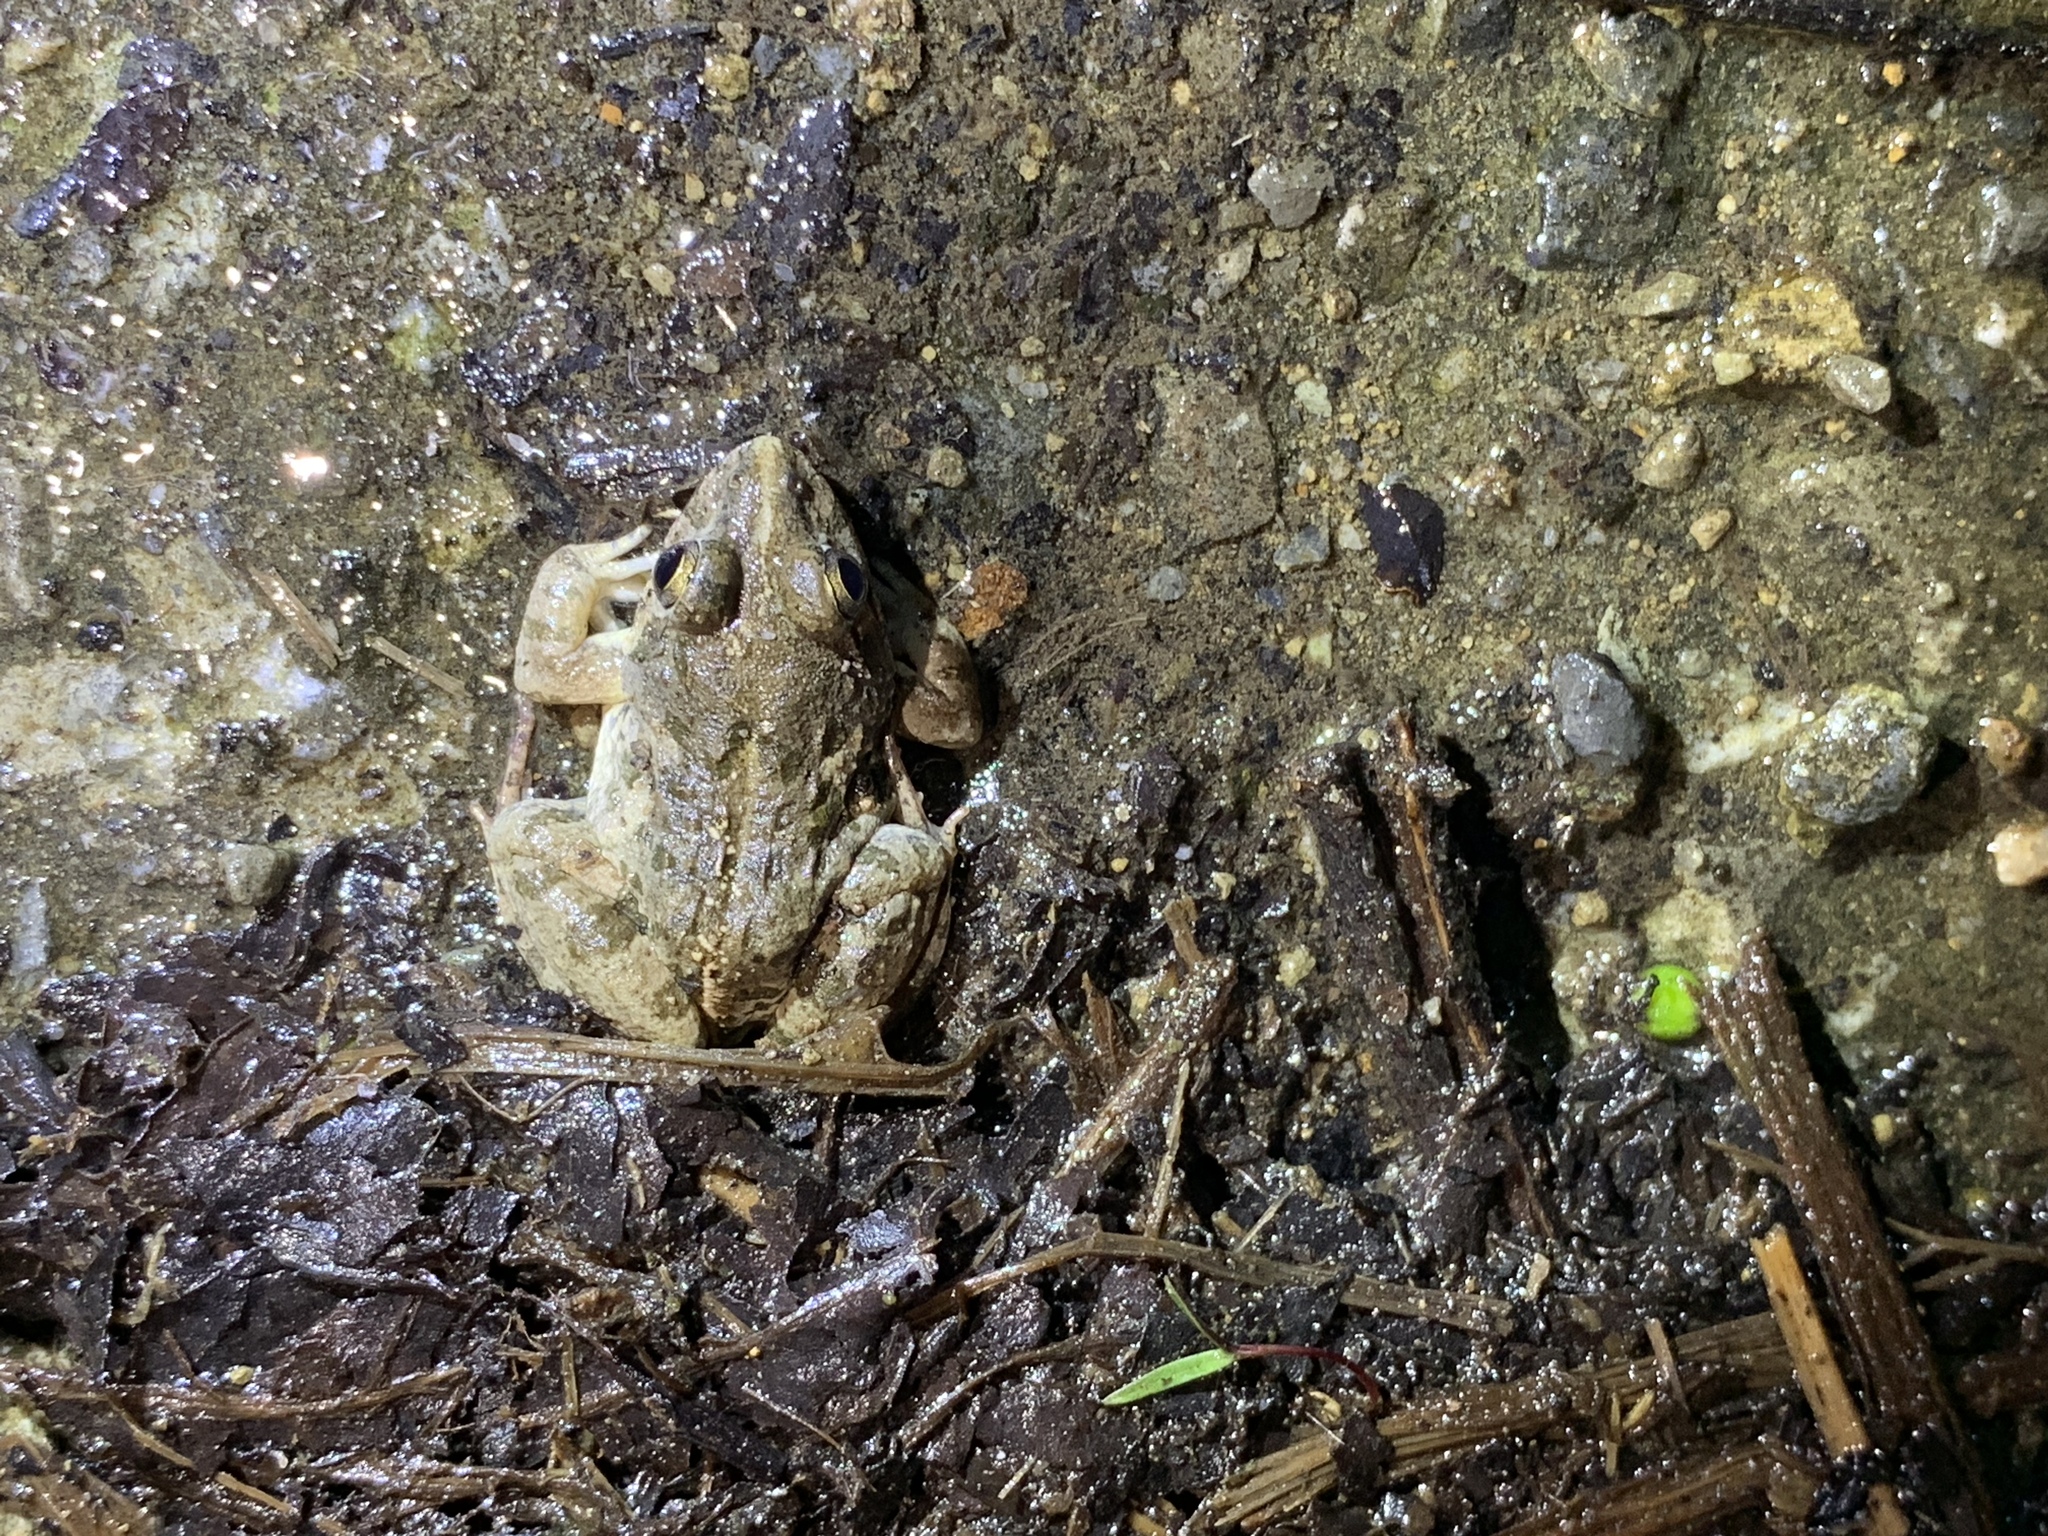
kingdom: Animalia
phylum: Chordata
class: Amphibia
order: Anura
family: Dicroglossidae
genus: Fejervarya
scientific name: Fejervarya limnocharis
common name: Asian grass frog/common pond frog/field frog/grass frog/indian rice frog
